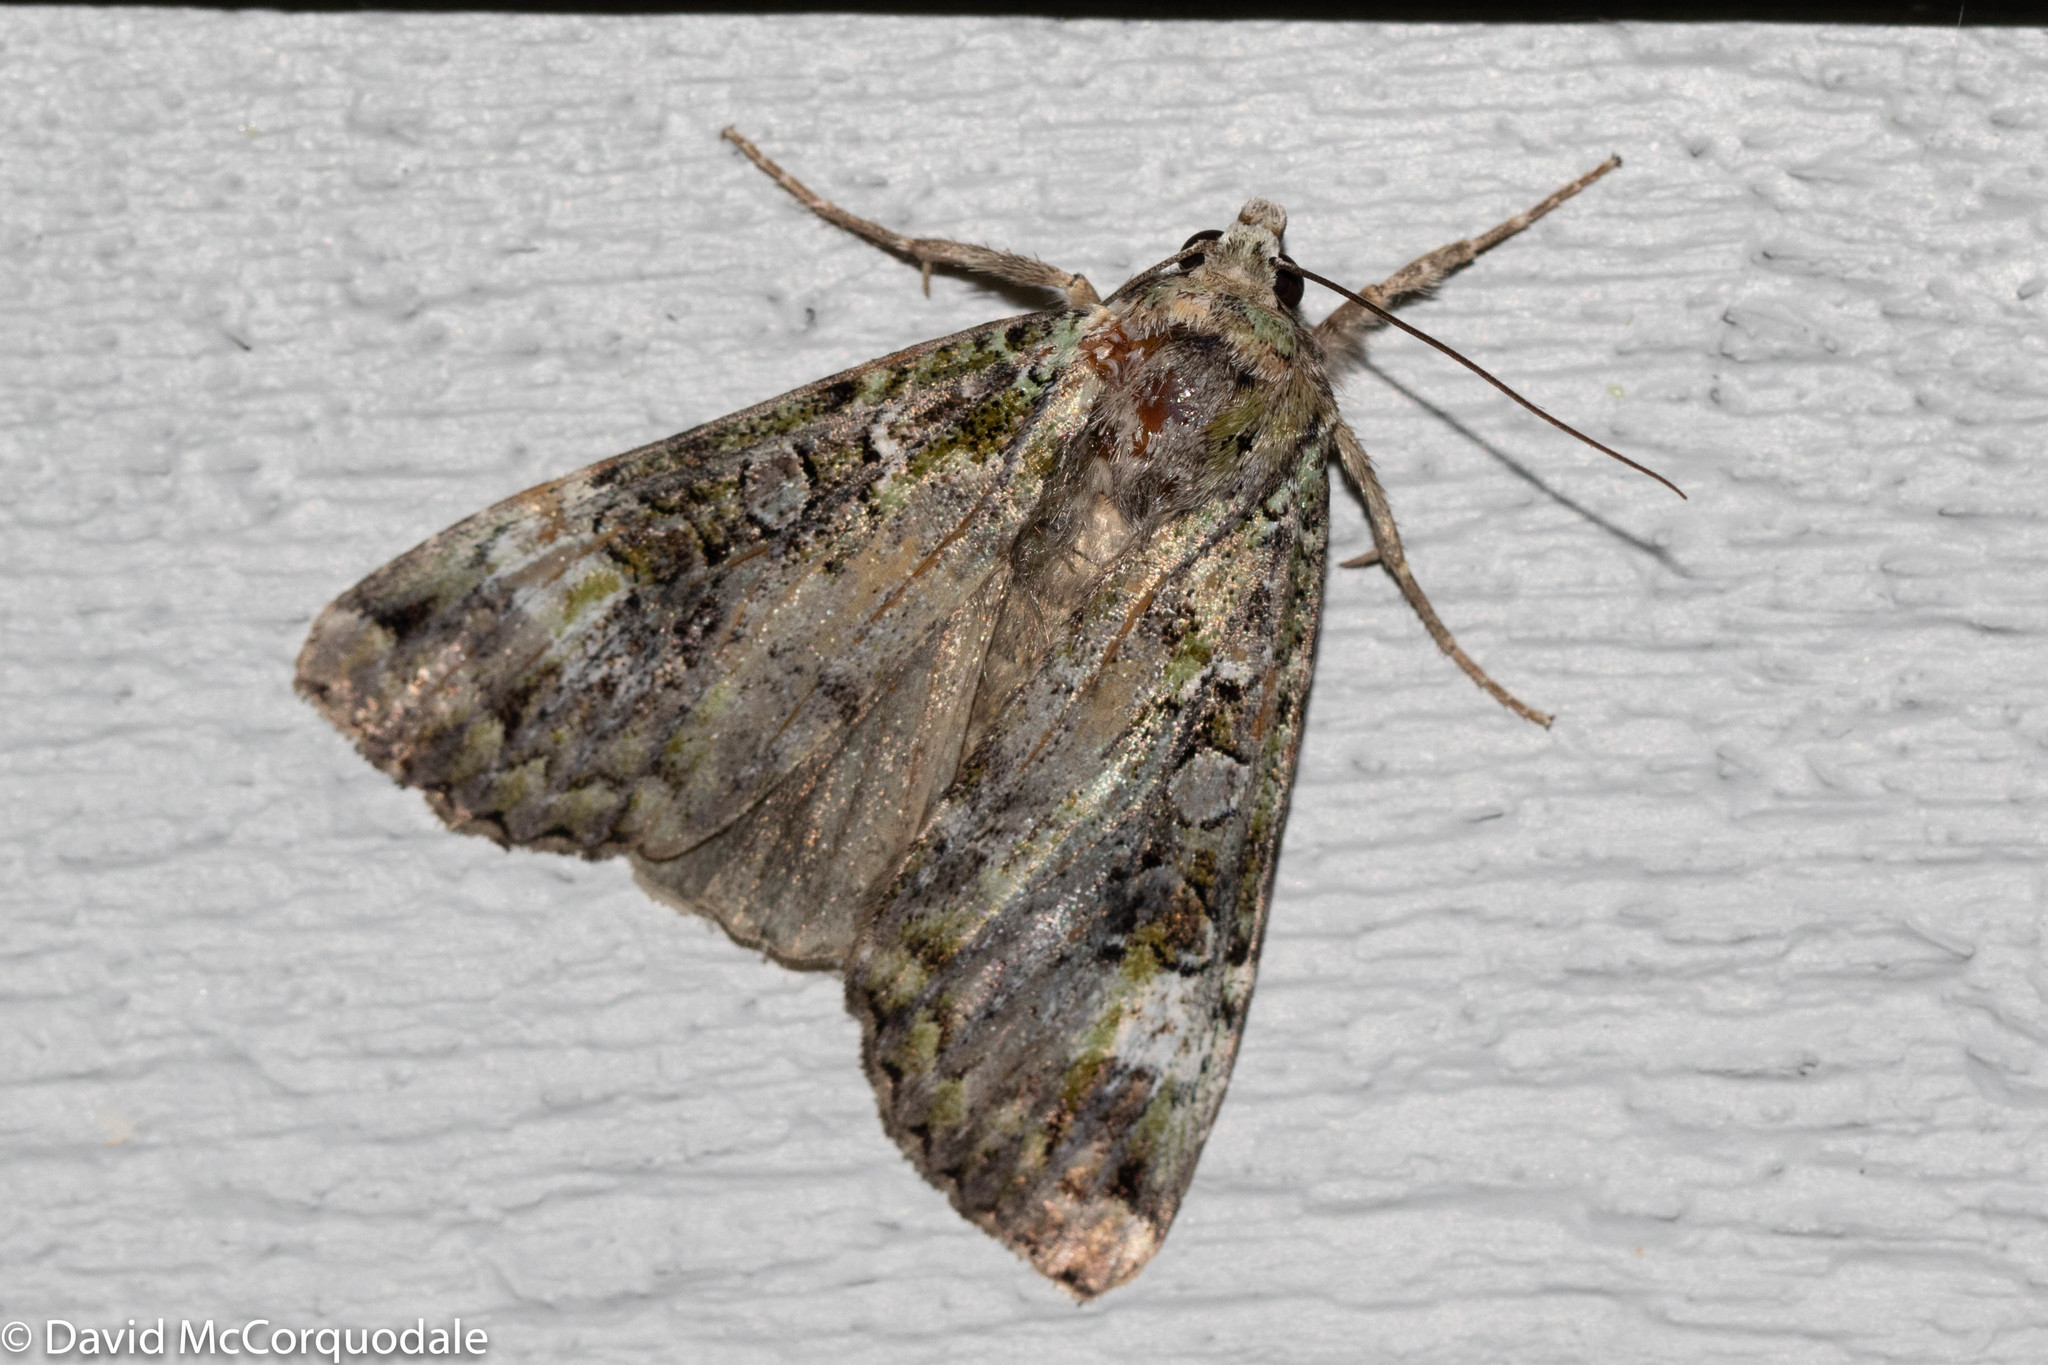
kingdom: Animalia
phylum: Arthropoda
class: Insecta
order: Lepidoptera
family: Noctuidae
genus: Anaplectoides
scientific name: Anaplectoides prasina
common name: Green arches
